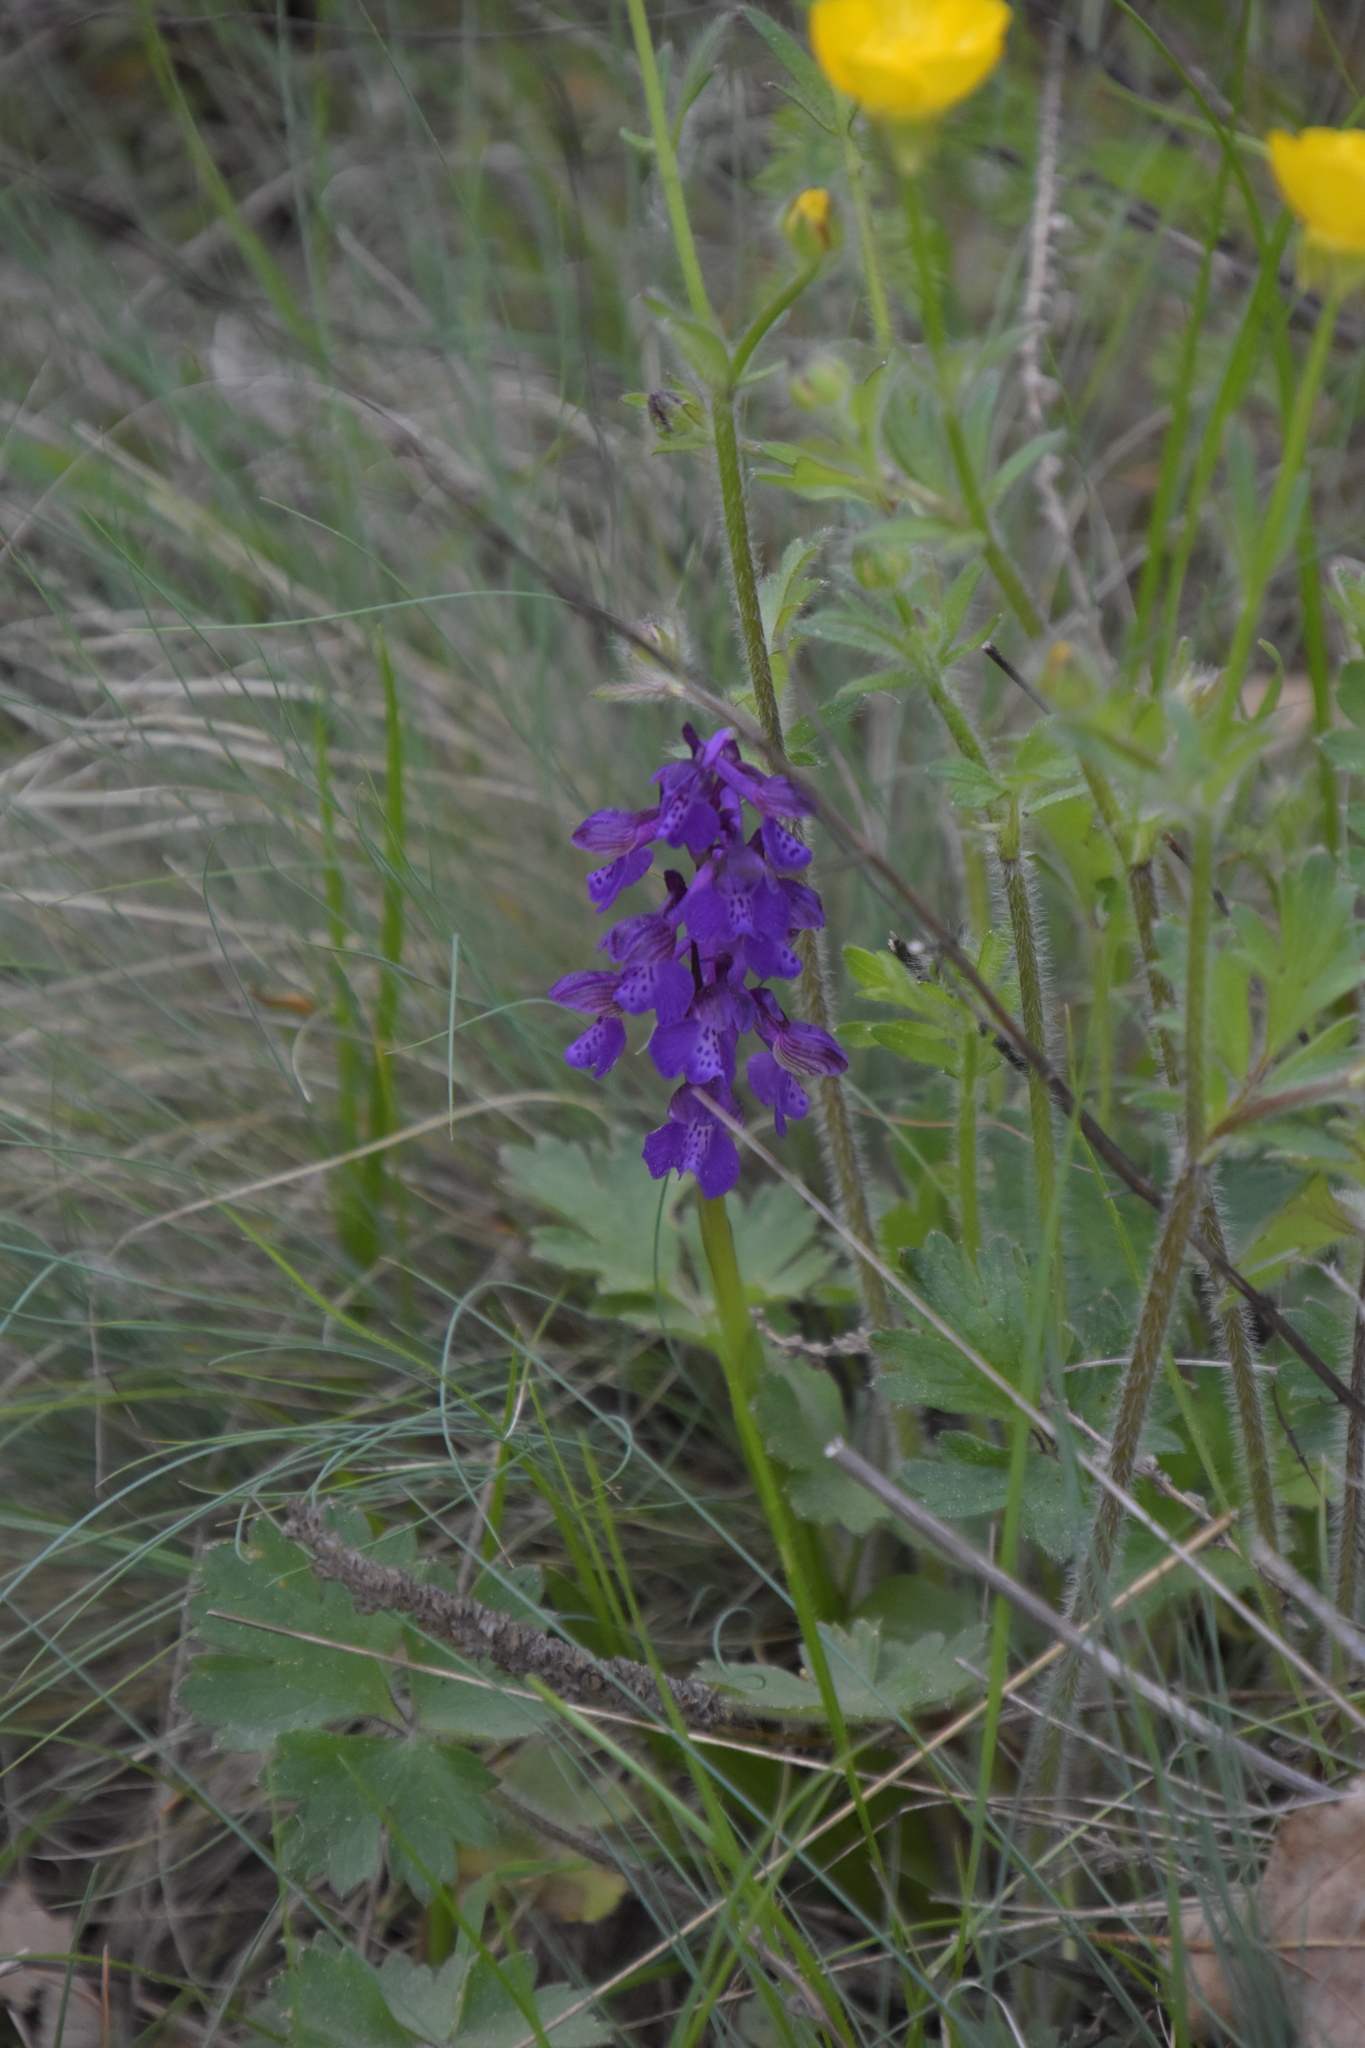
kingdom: Plantae
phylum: Tracheophyta
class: Liliopsida
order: Asparagales
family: Orchidaceae
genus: Anacamptis
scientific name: Anacamptis morio
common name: Green-winged orchid
